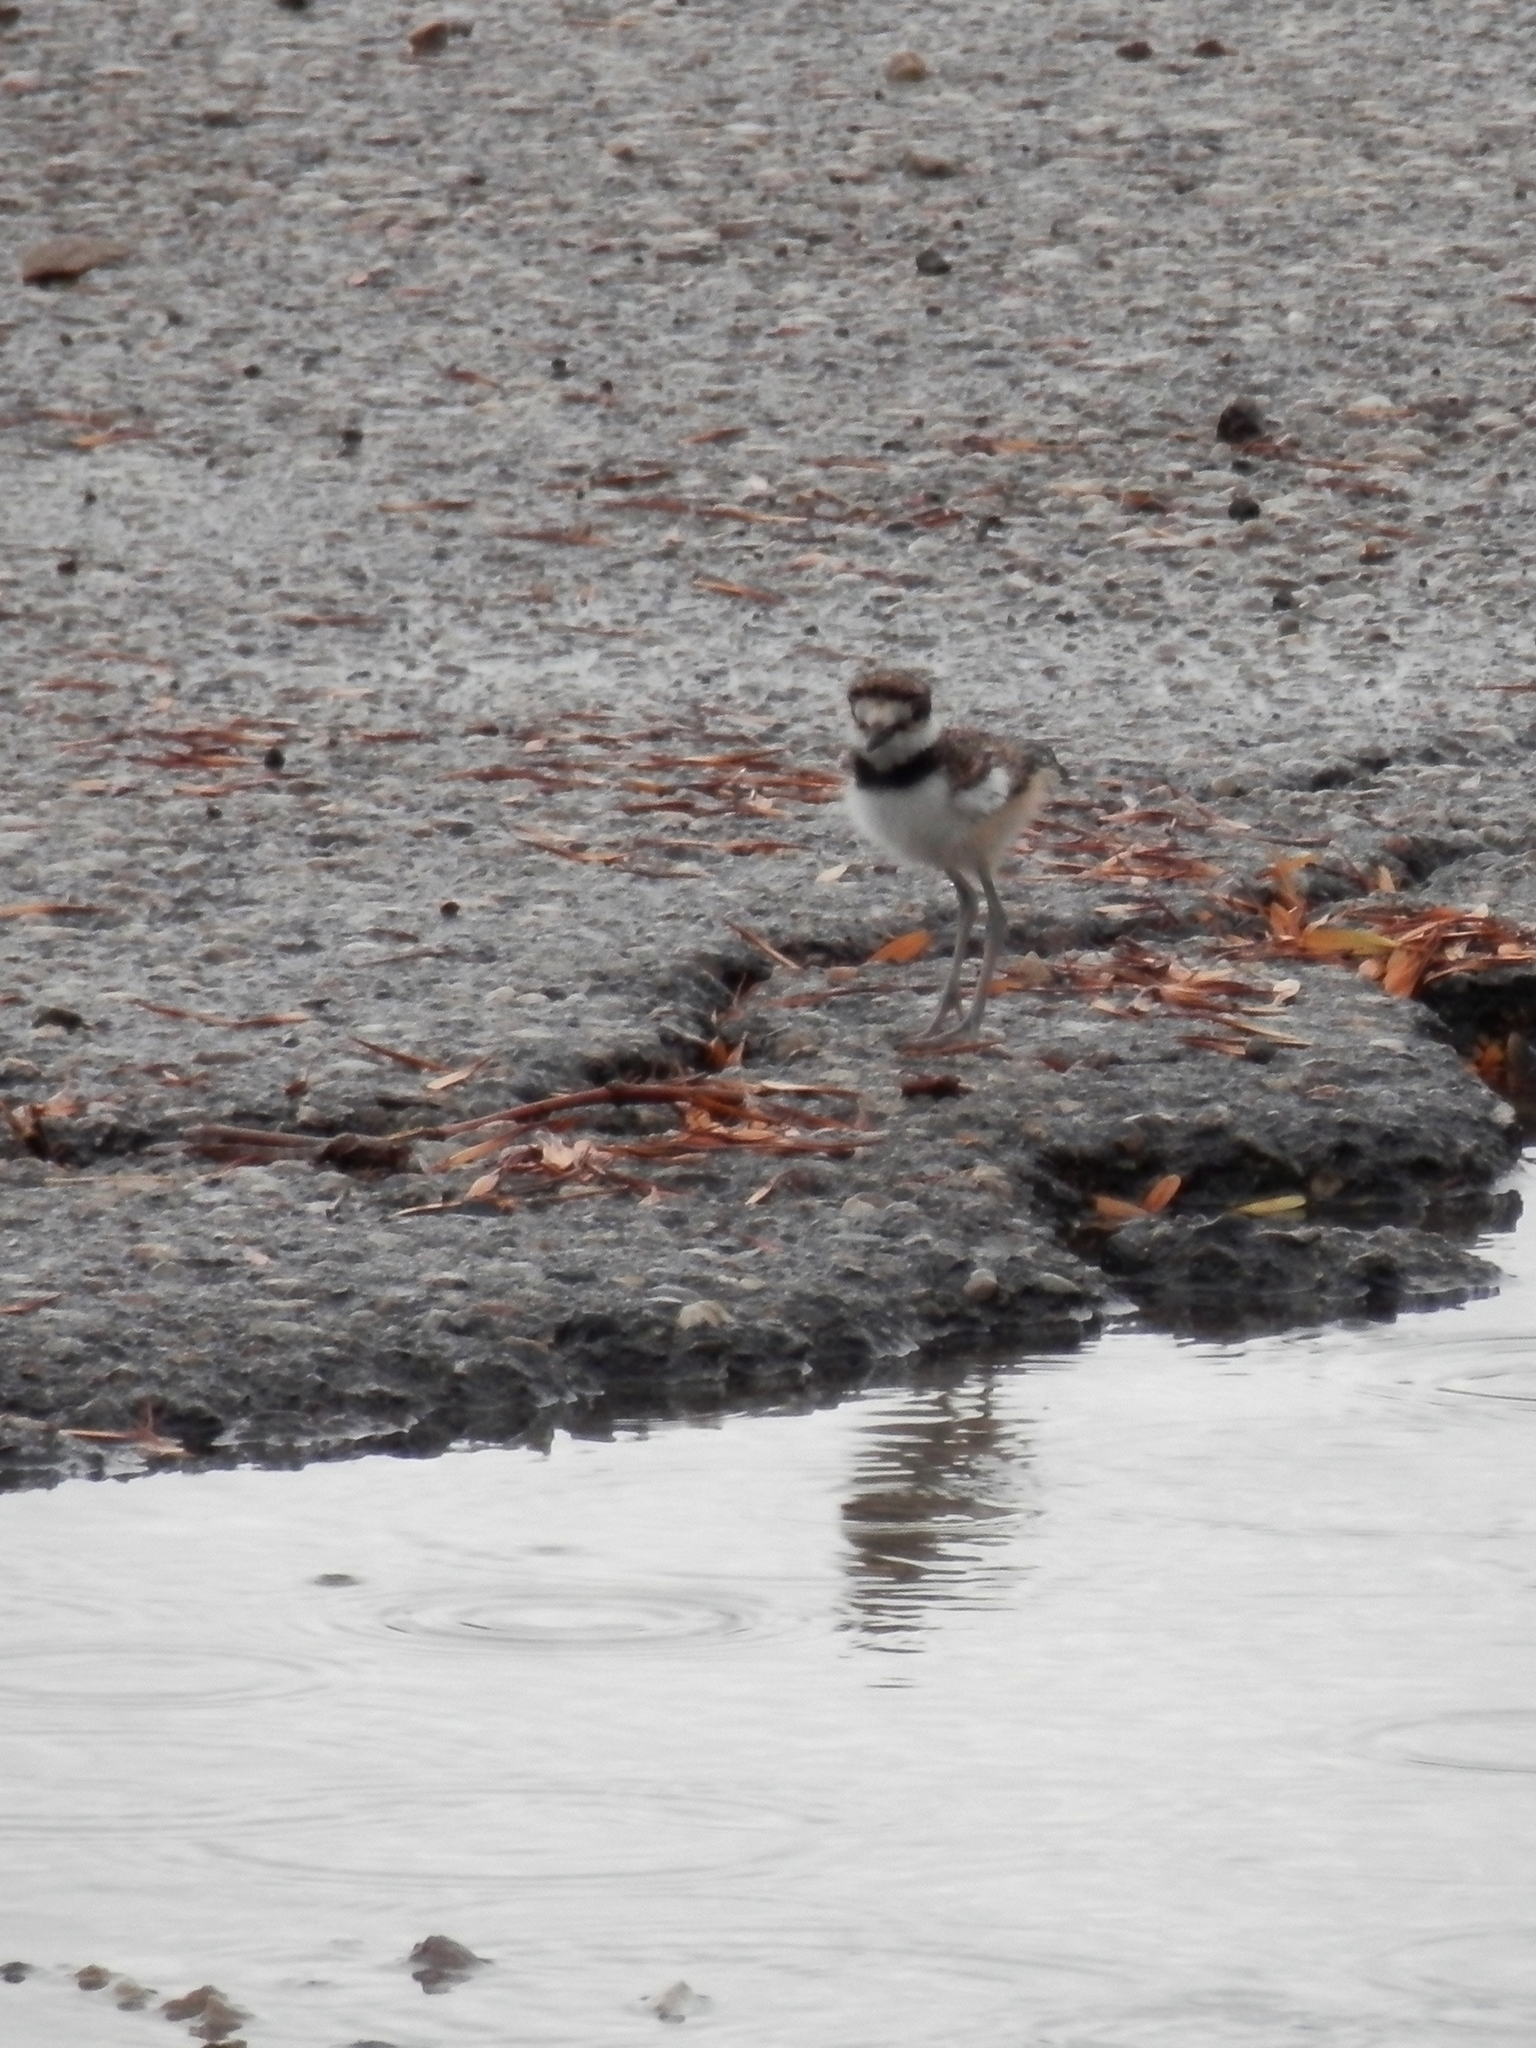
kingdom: Animalia
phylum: Chordata
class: Aves
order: Charadriiformes
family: Charadriidae
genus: Charadrius
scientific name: Charadrius vociferus
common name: Killdeer
